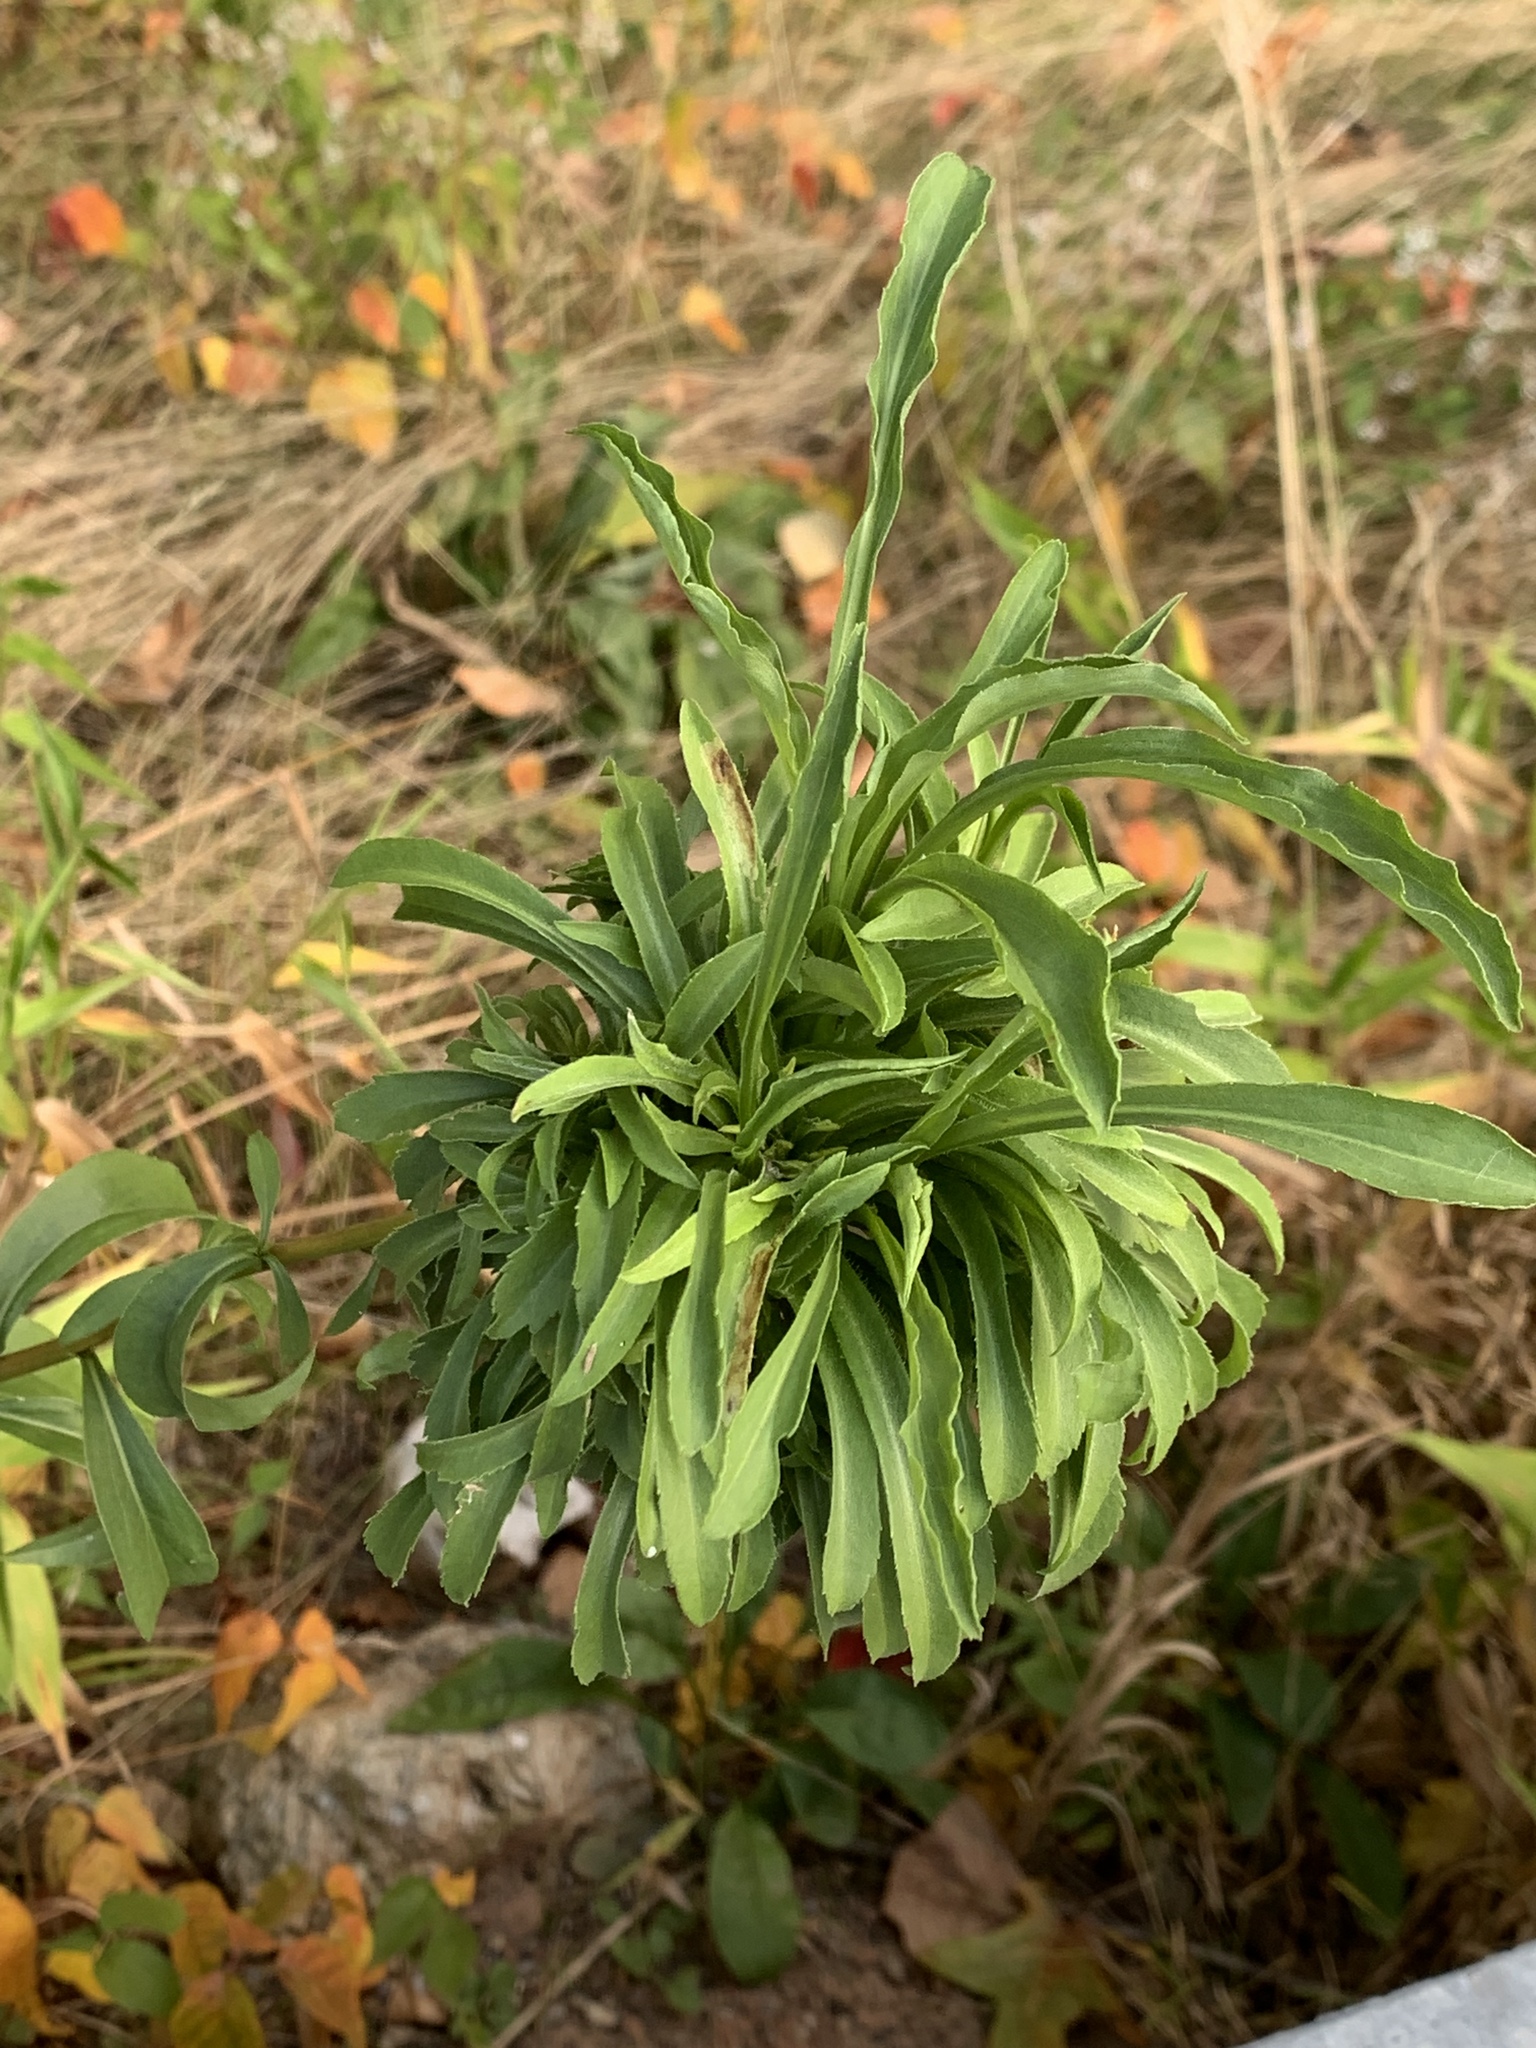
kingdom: Animalia
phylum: Arthropoda
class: Insecta
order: Diptera
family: Cecidomyiidae
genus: Rhopalomyia
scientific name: Rhopalomyia solidaginis
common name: Goldenrod bunch gall midge
